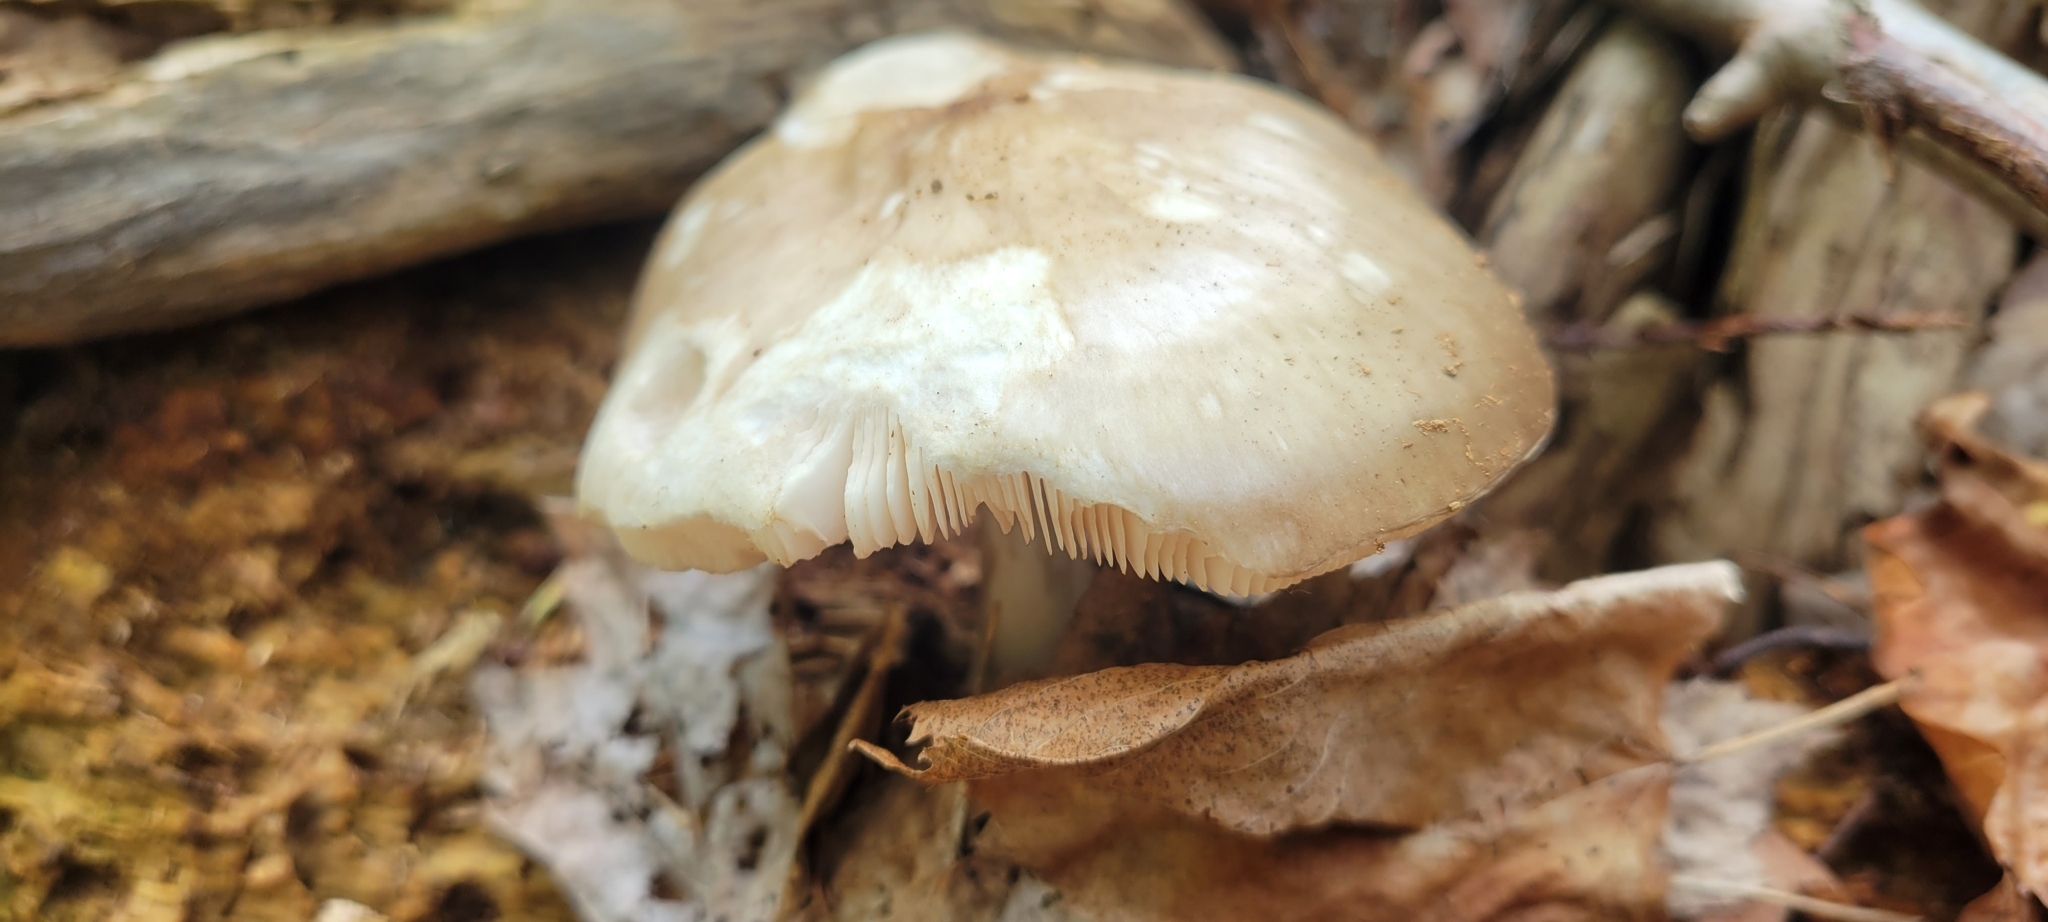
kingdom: Fungi
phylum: Basidiomycota
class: Agaricomycetes
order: Agaricales
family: Pluteaceae
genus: Pluteus
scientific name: Pluteus cervinus
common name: Deer shield
